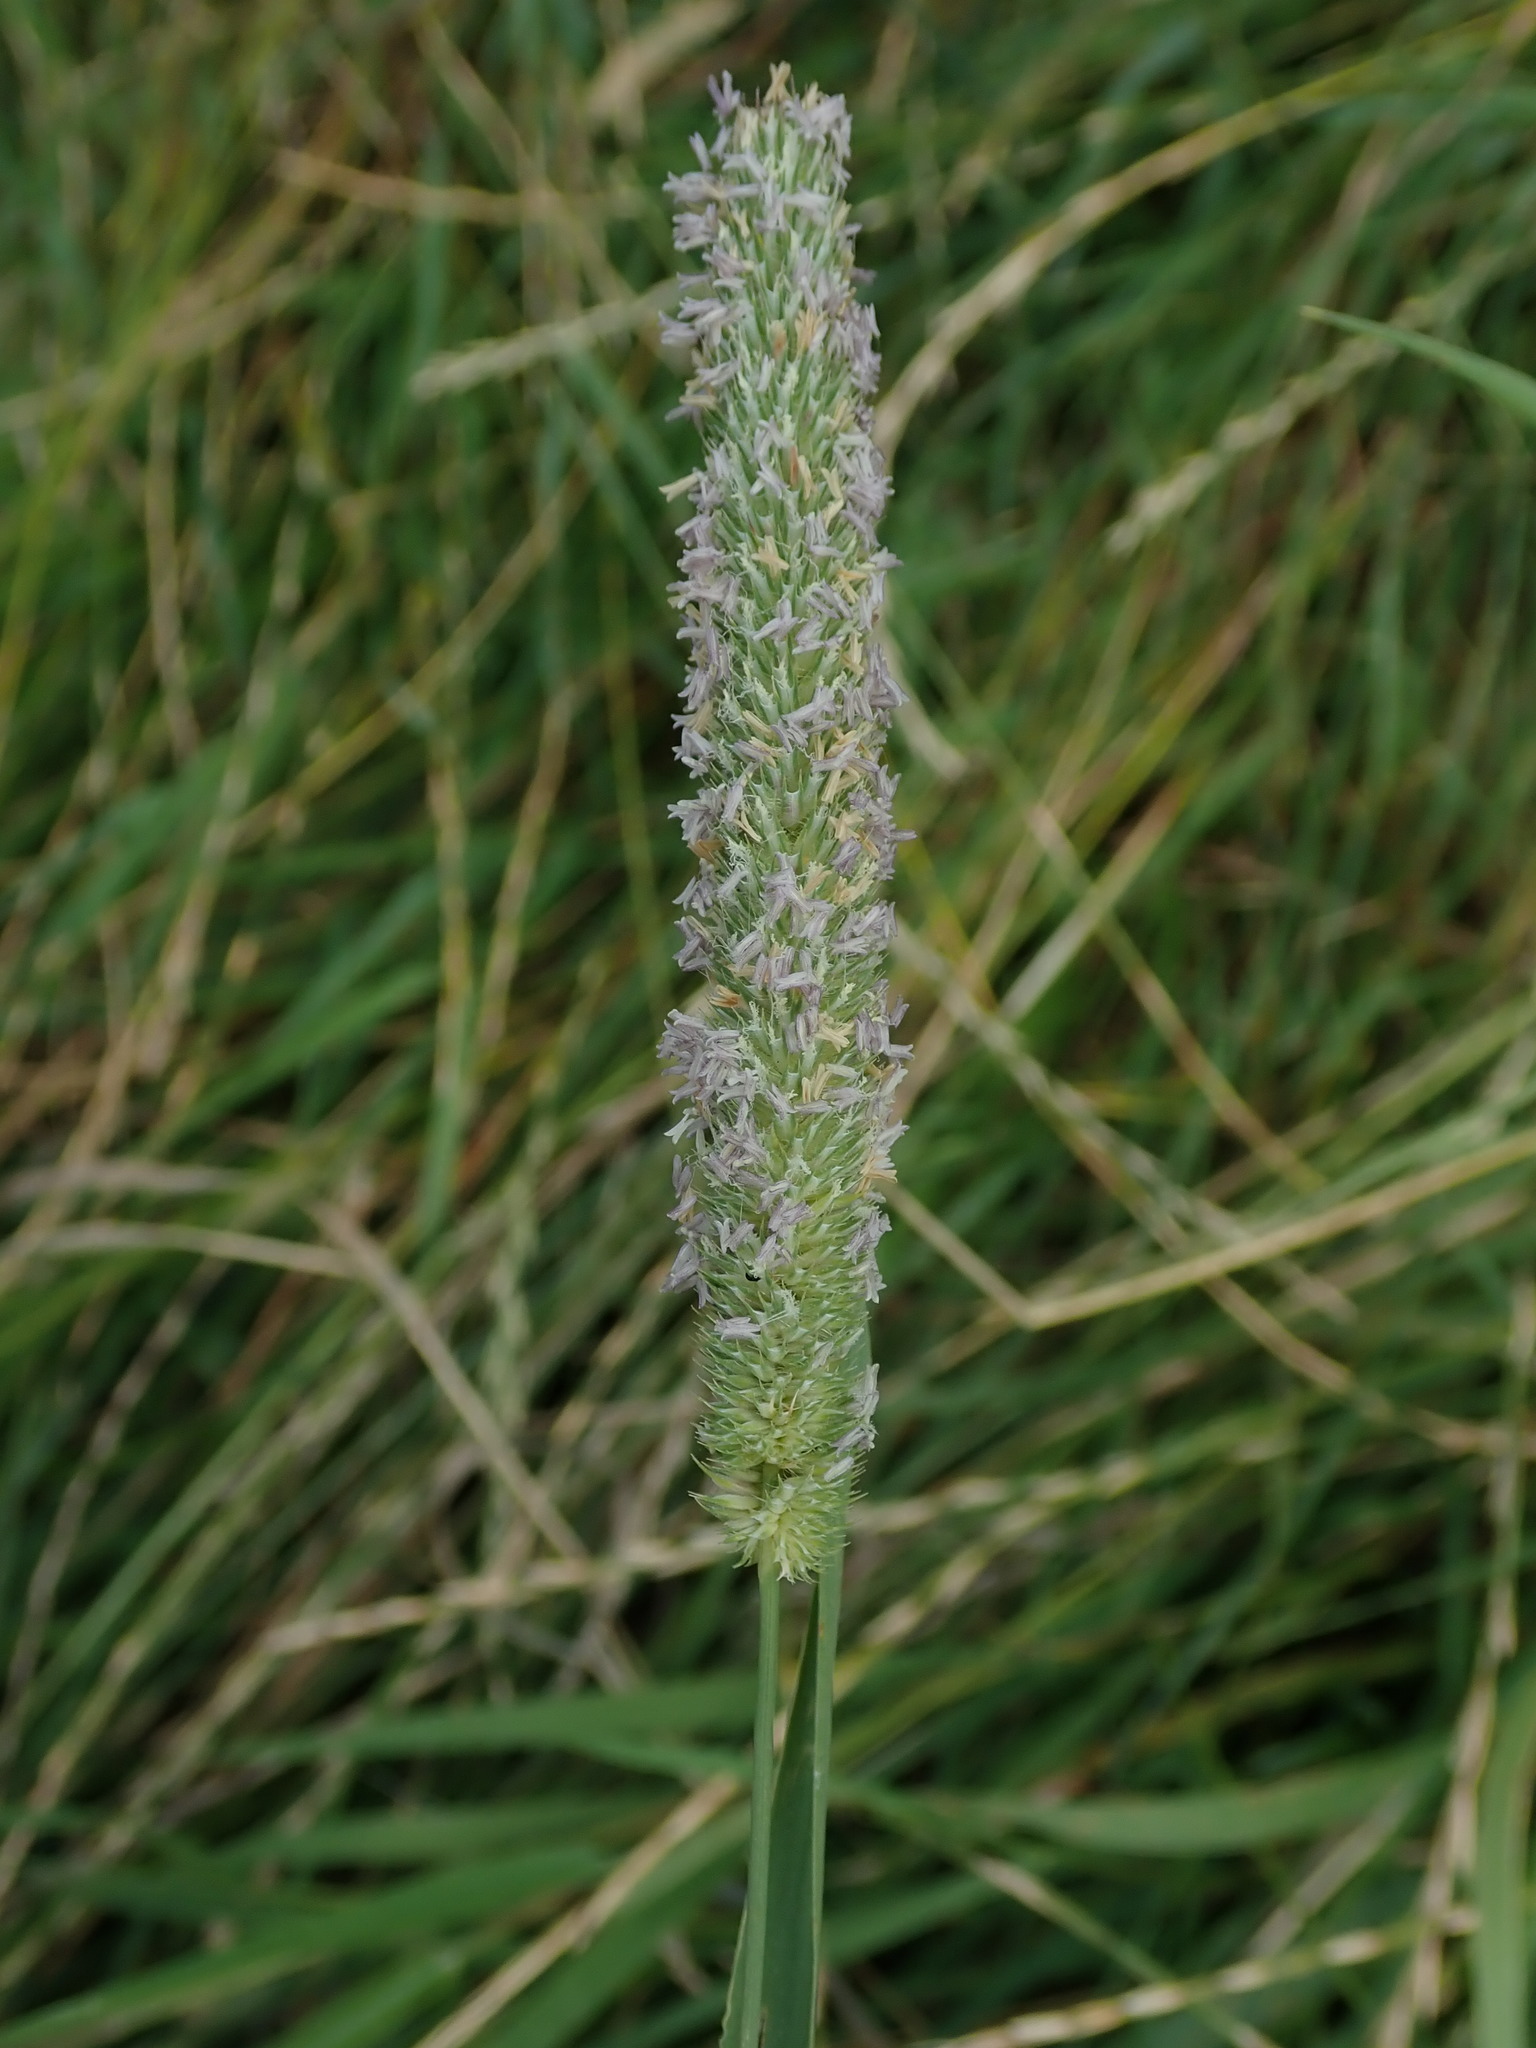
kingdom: Plantae
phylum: Tracheophyta
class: Liliopsida
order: Poales
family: Poaceae
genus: Phleum
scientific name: Phleum pratense
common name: Timothy grass
